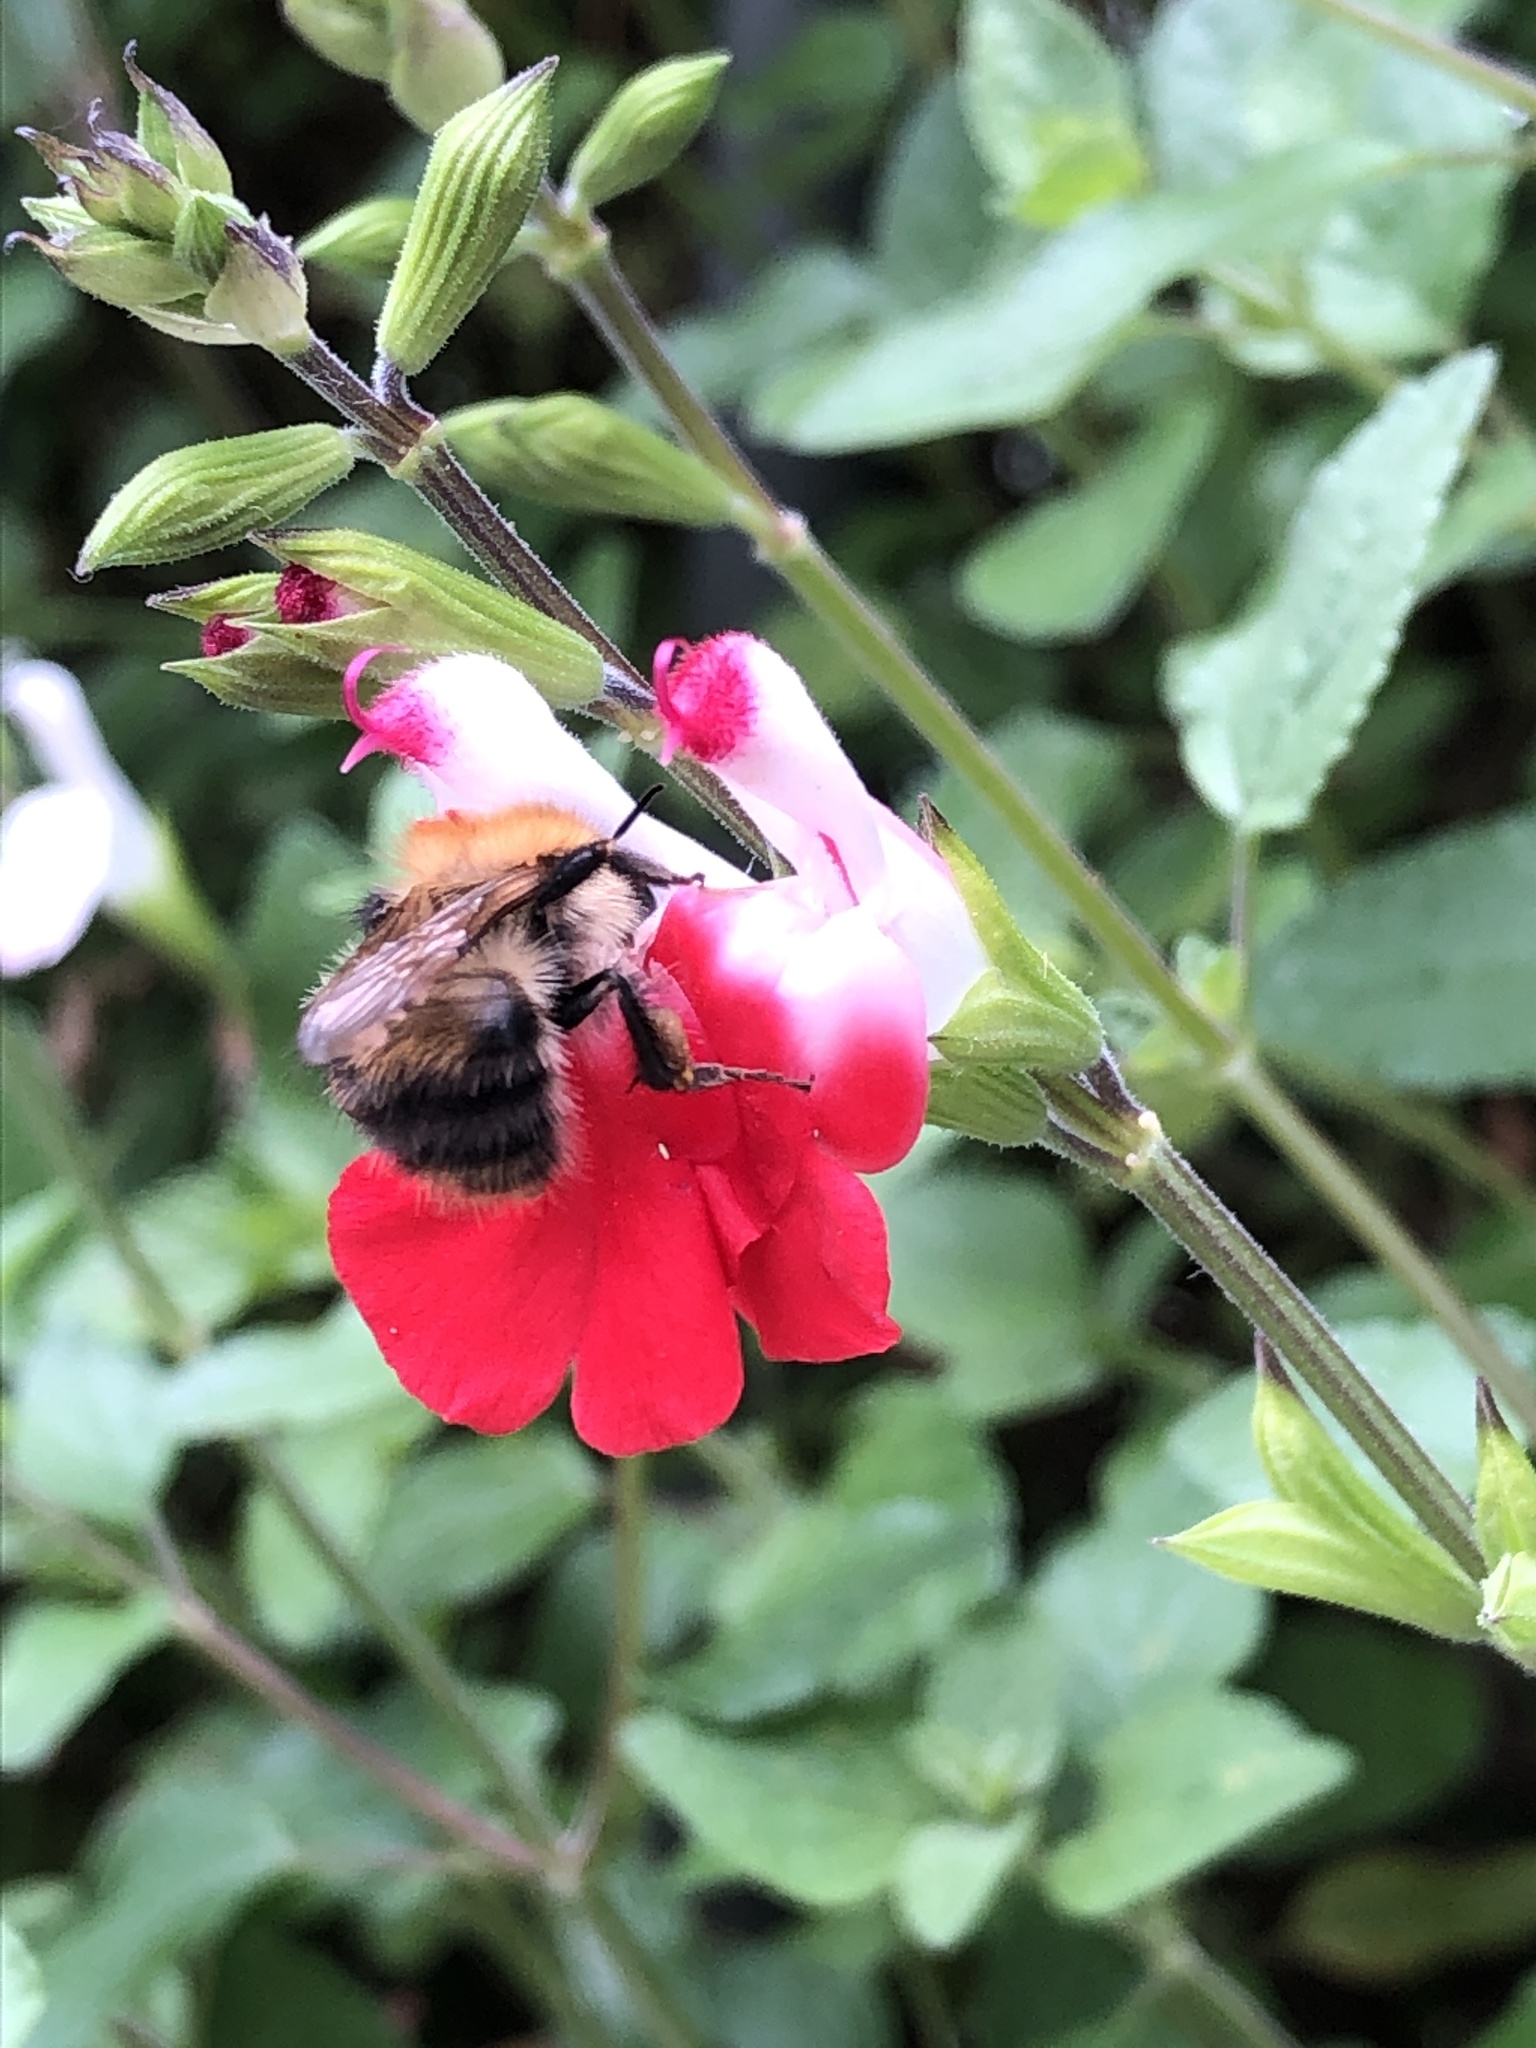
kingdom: Animalia
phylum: Arthropoda
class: Insecta
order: Hymenoptera
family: Apidae
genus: Bombus
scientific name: Bombus pascuorum
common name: Common carder bee
